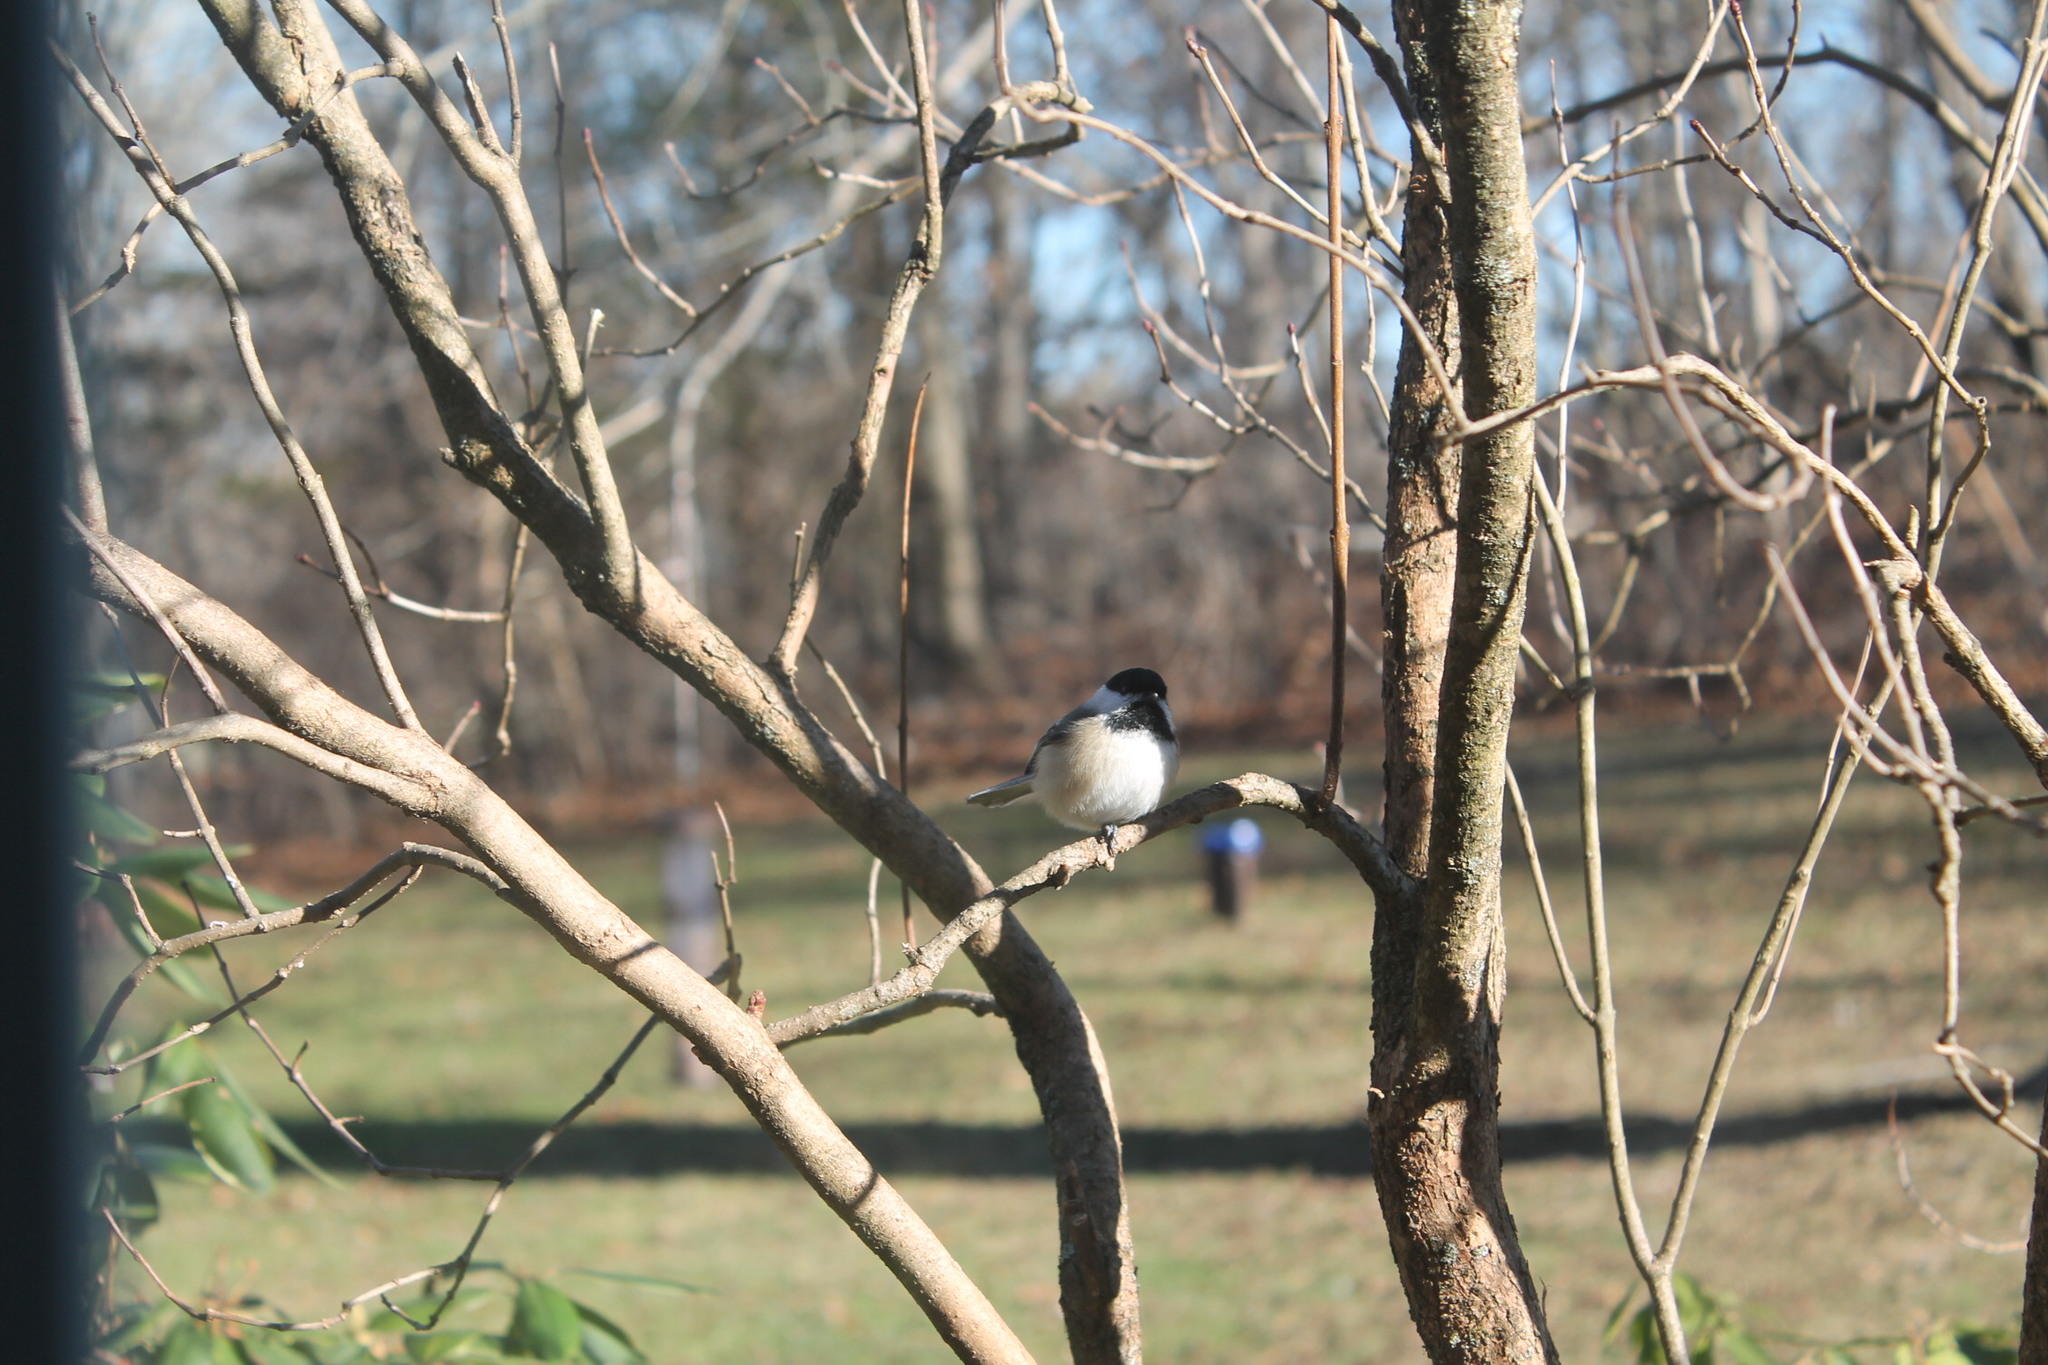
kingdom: Animalia
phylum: Chordata
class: Aves
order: Passeriformes
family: Paridae
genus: Poecile
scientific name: Poecile atricapillus
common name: Black-capped chickadee
